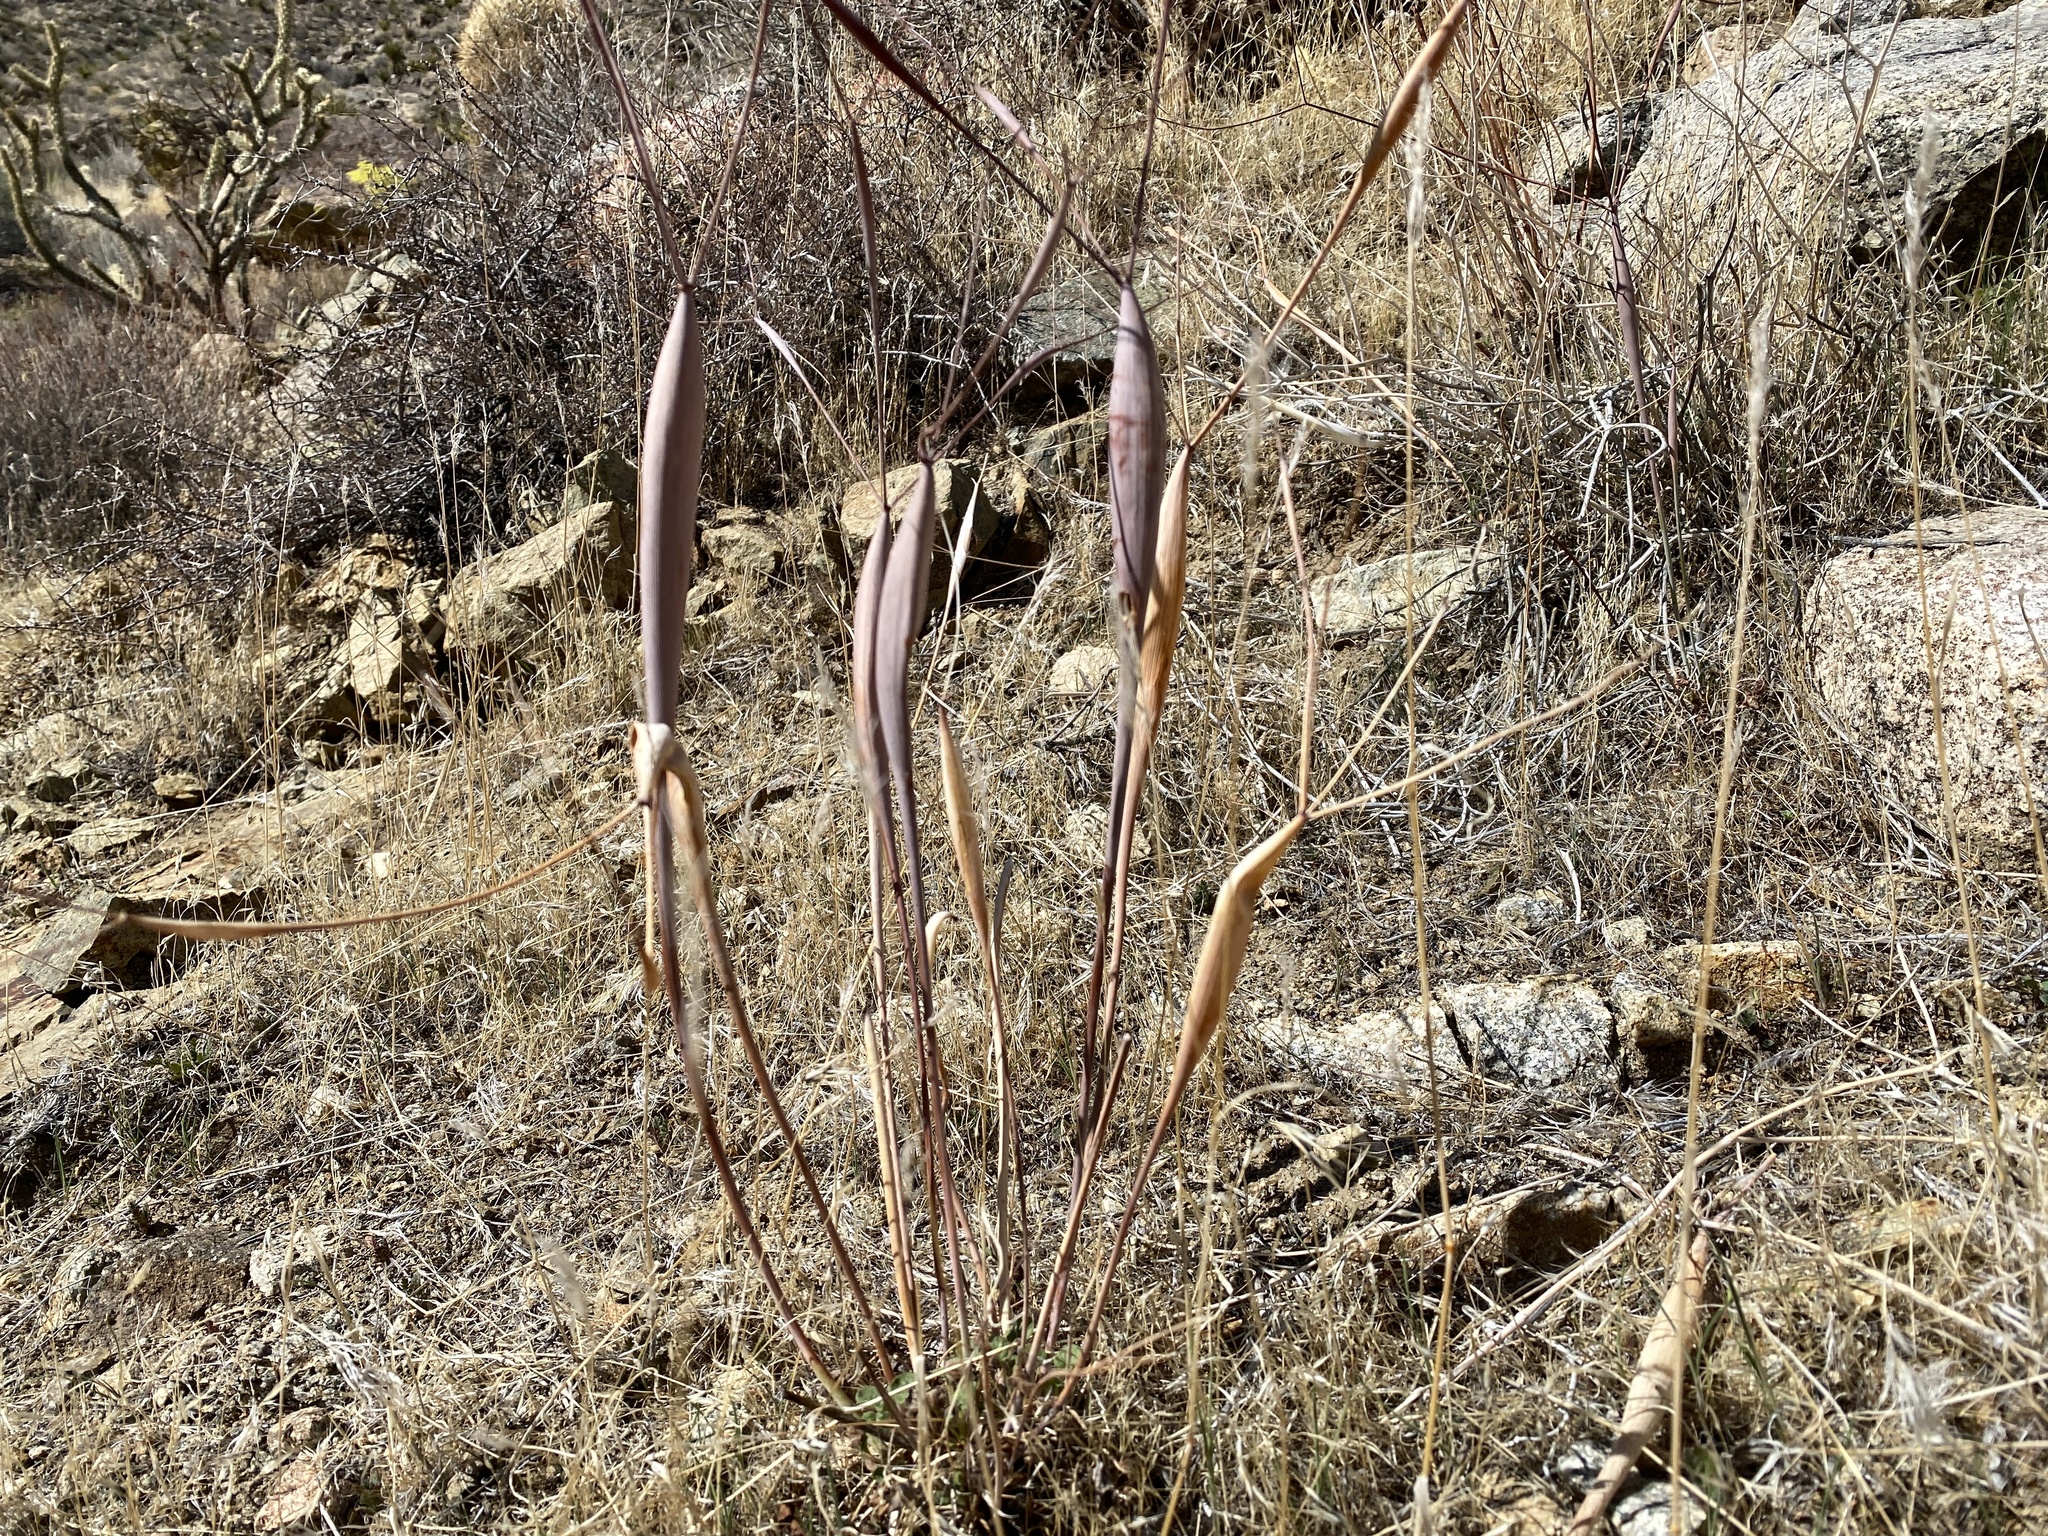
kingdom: Plantae
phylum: Tracheophyta
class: Magnoliopsida
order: Caryophyllales
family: Polygonaceae
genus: Eriogonum
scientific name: Eriogonum inflatum
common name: Desert trumpet
